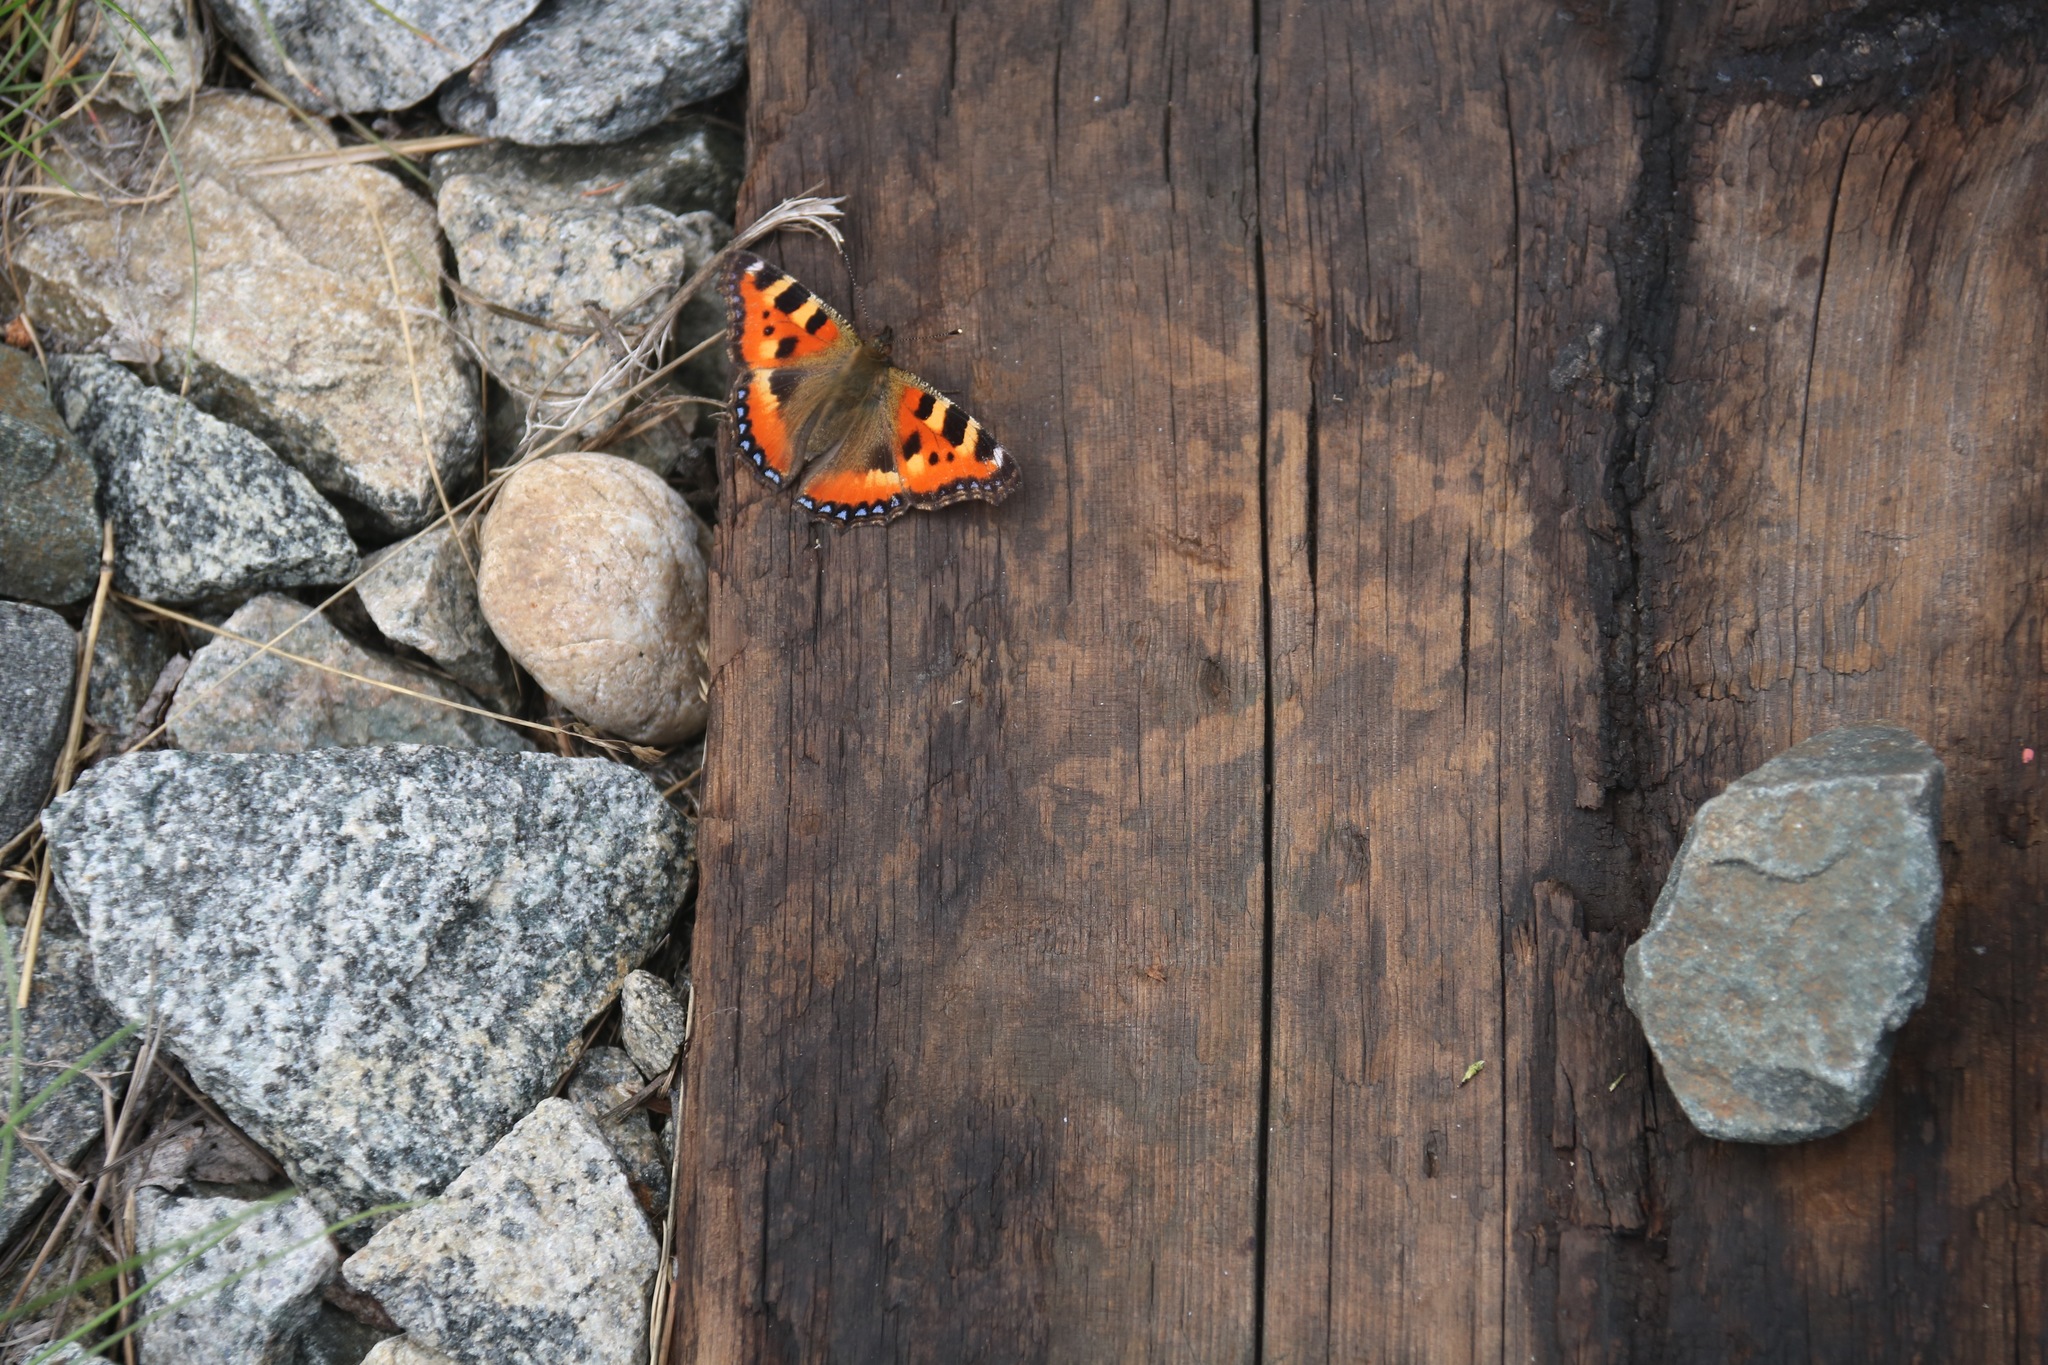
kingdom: Animalia
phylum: Arthropoda
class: Insecta
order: Lepidoptera
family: Nymphalidae
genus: Aglais
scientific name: Aglais urticae
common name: Small tortoiseshell
